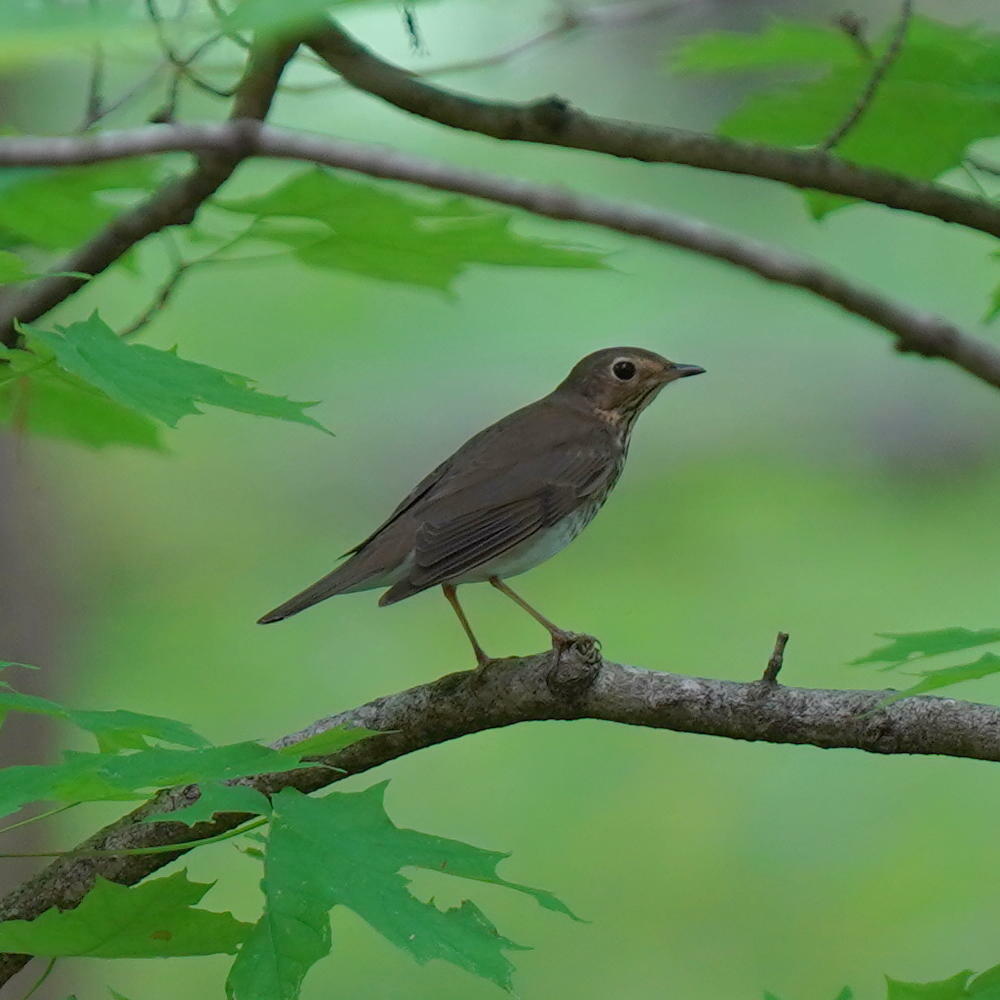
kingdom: Animalia
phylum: Chordata
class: Aves
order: Passeriformes
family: Turdidae
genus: Catharus
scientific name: Catharus ustulatus
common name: Swainson's thrush
